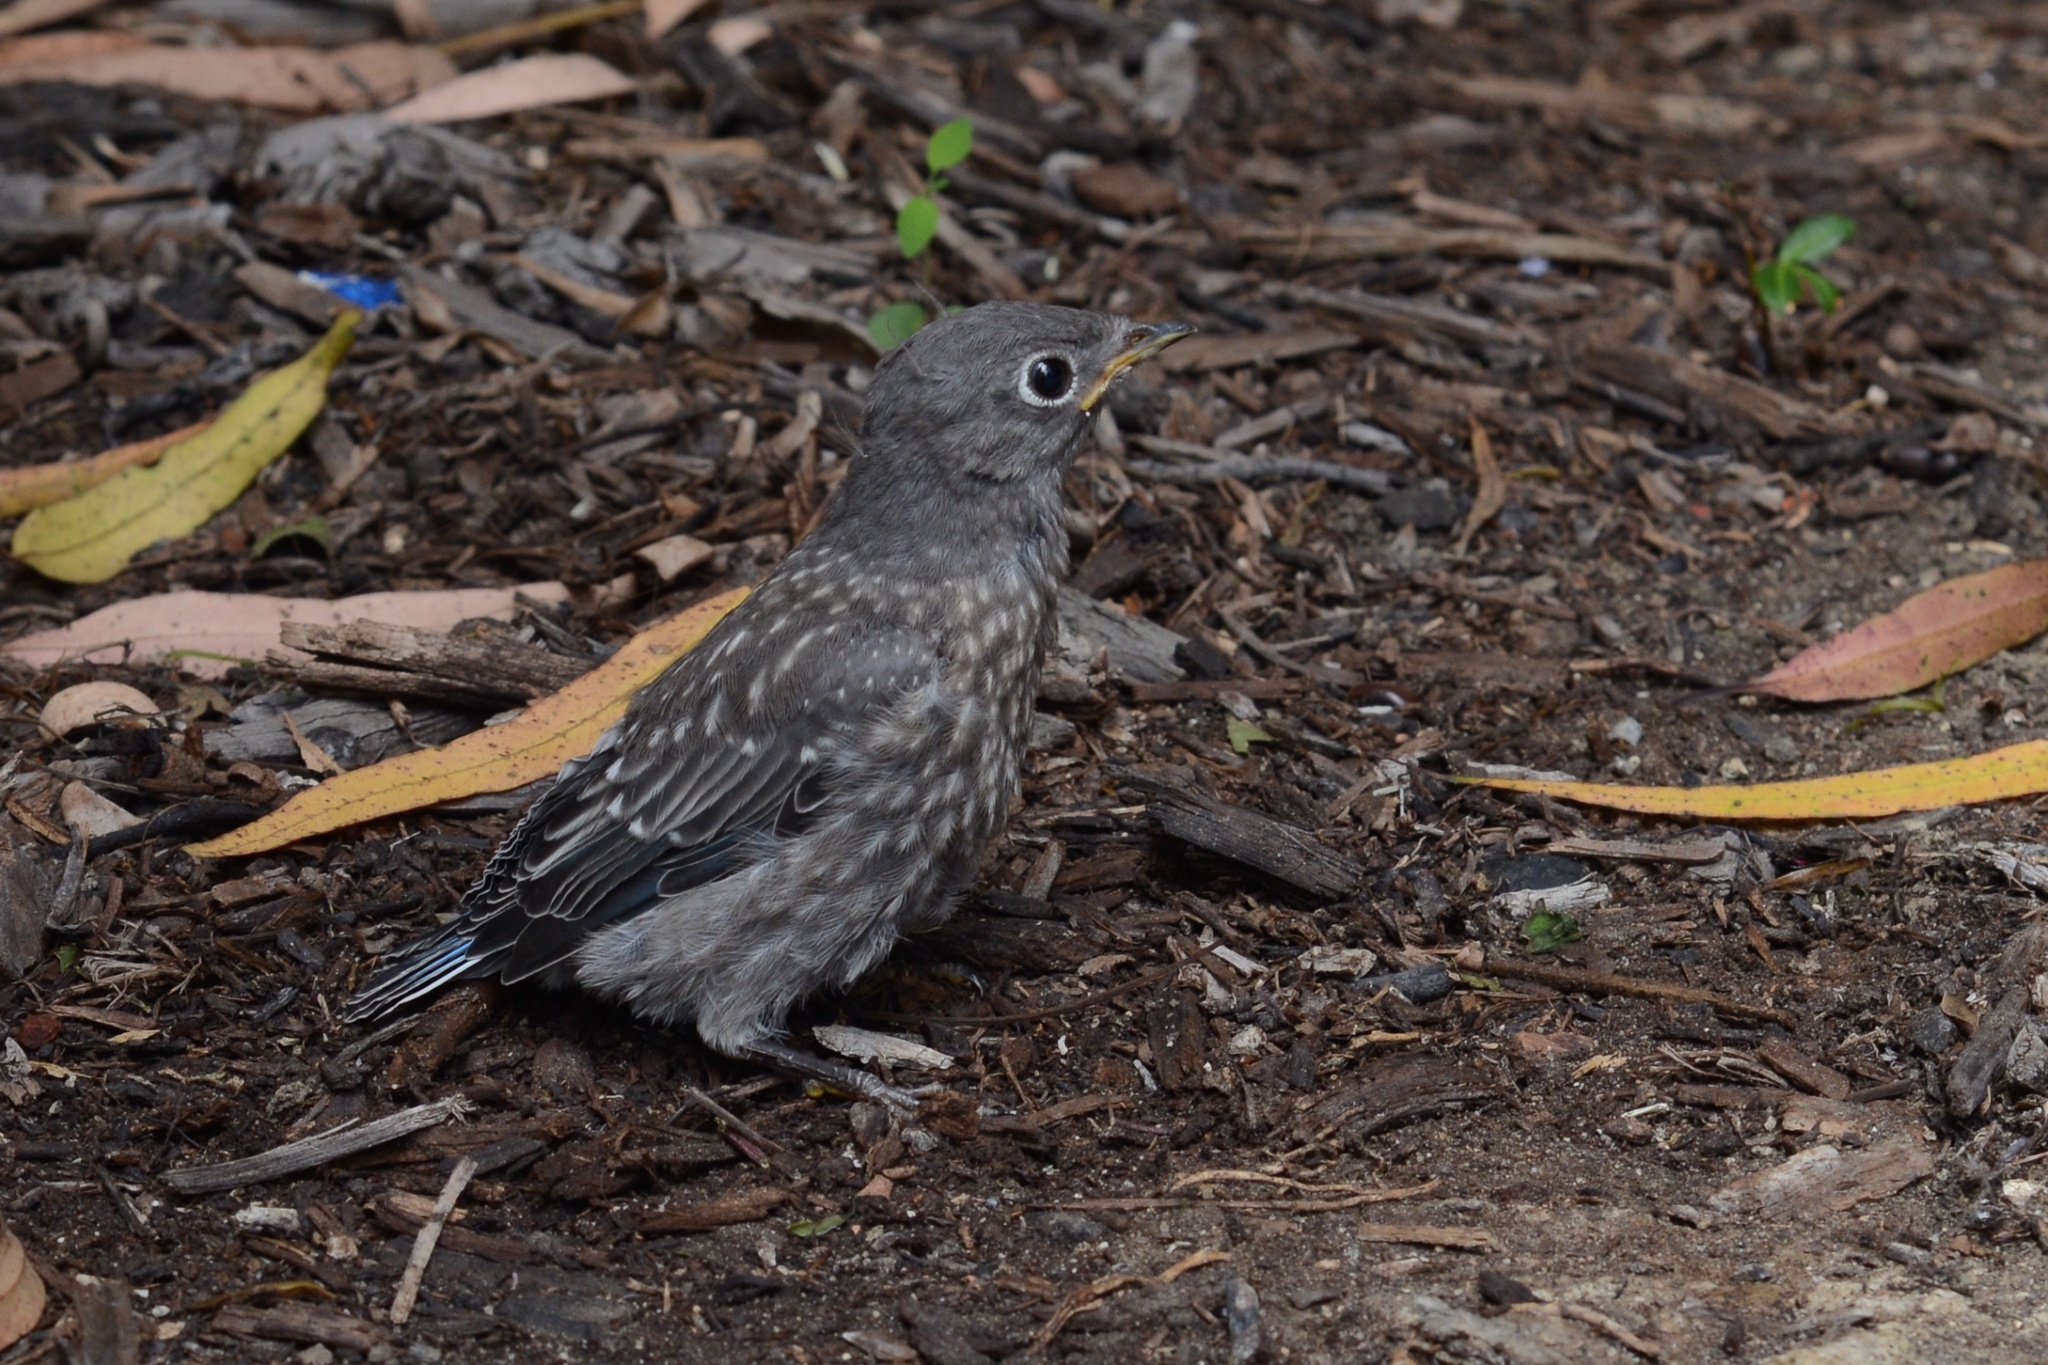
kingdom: Animalia
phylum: Chordata
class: Aves
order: Passeriformes
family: Turdidae
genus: Sialia
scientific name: Sialia mexicana
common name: Western bluebird
